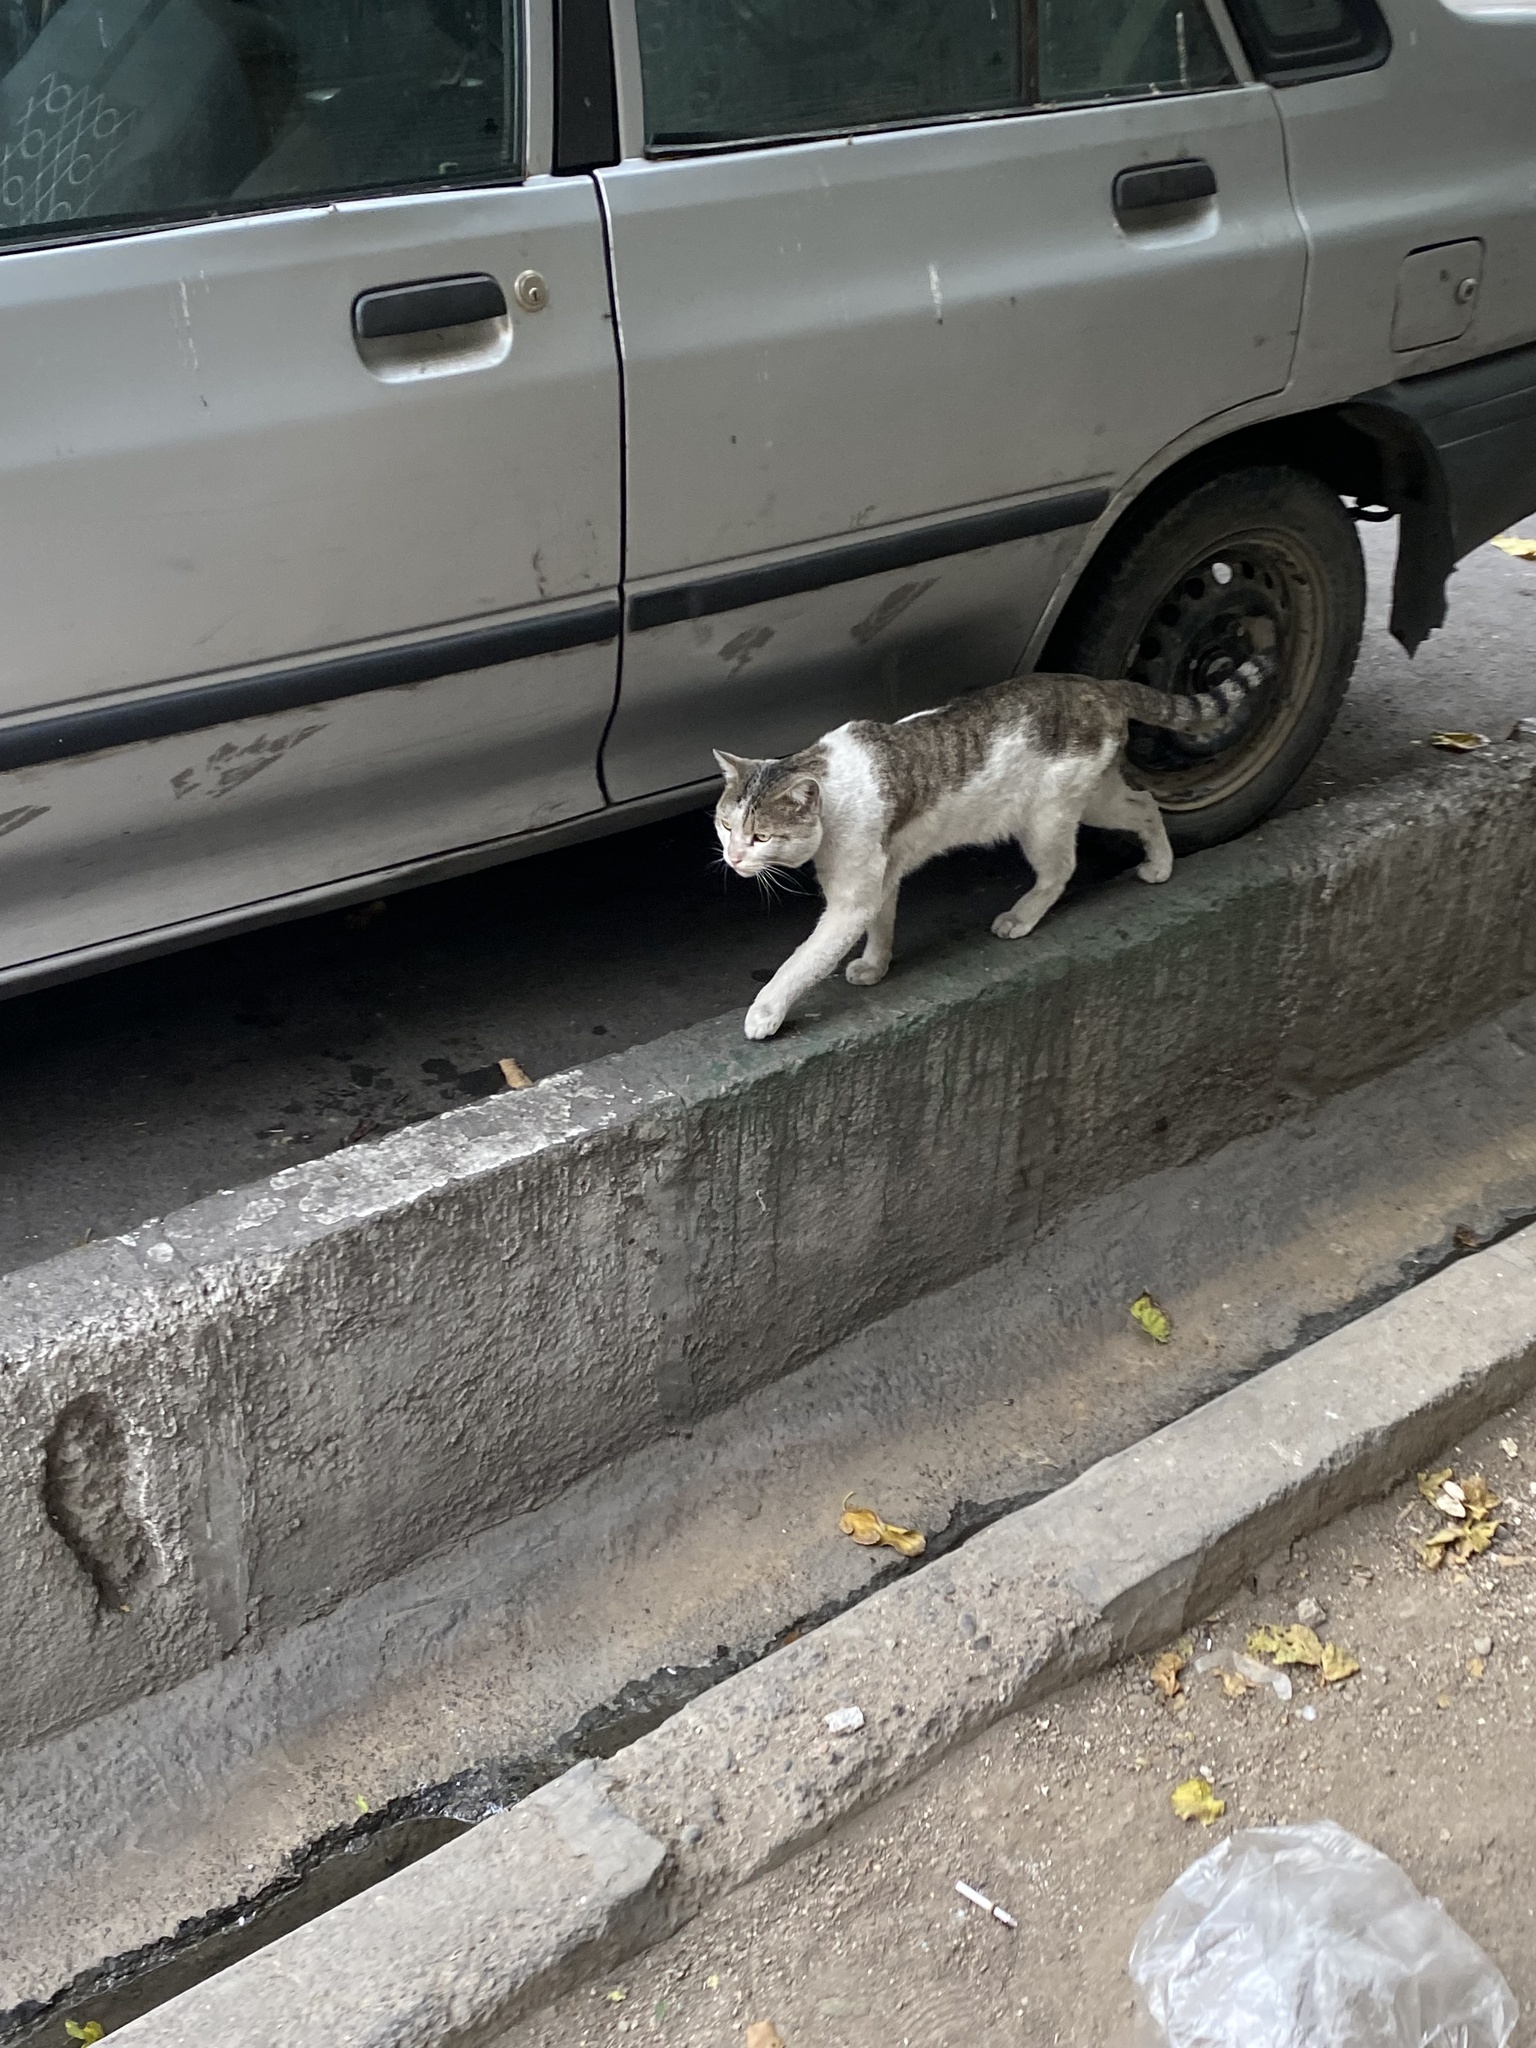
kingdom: Animalia
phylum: Chordata
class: Mammalia
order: Carnivora
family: Felidae
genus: Felis
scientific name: Felis catus
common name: Domestic cat
